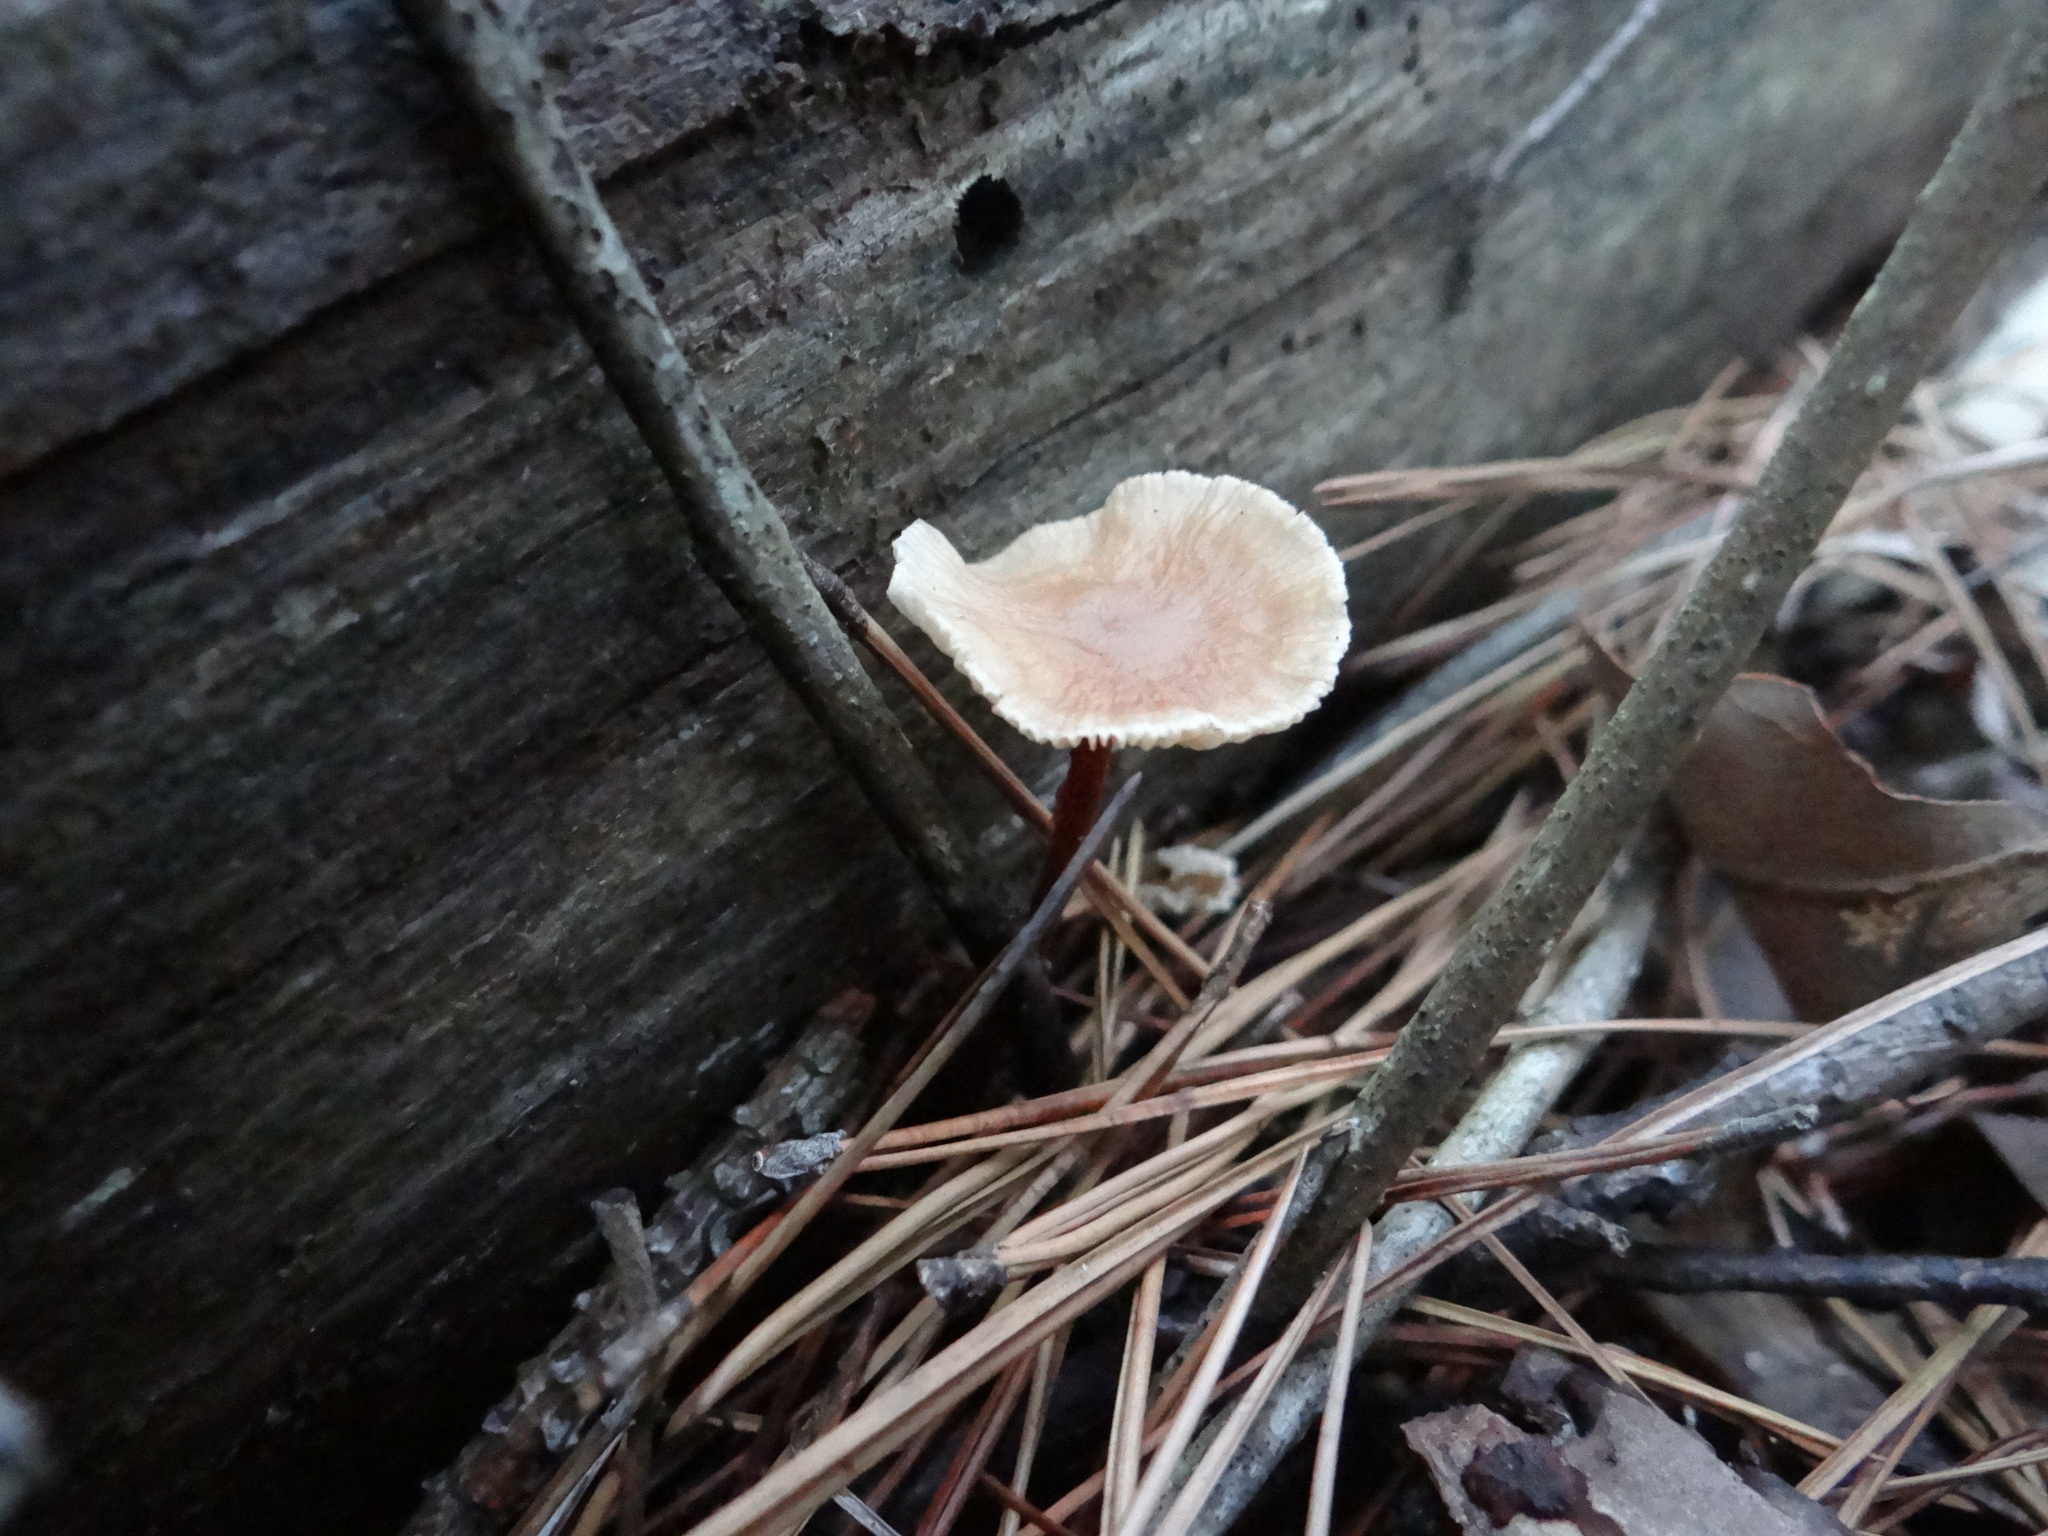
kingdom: Fungi
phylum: Basidiomycota
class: Agaricomycetes
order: Agaricales
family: Omphalotaceae
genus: Gymnopus
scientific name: Gymnopus brassicolens
